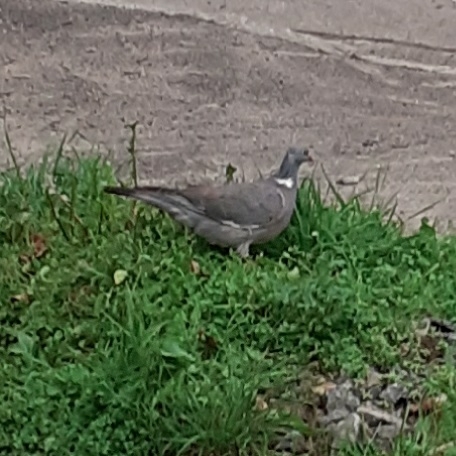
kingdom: Animalia
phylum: Chordata
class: Aves
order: Columbiformes
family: Columbidae
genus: Columba
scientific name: Columba palumbus
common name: Common wood pigeon
